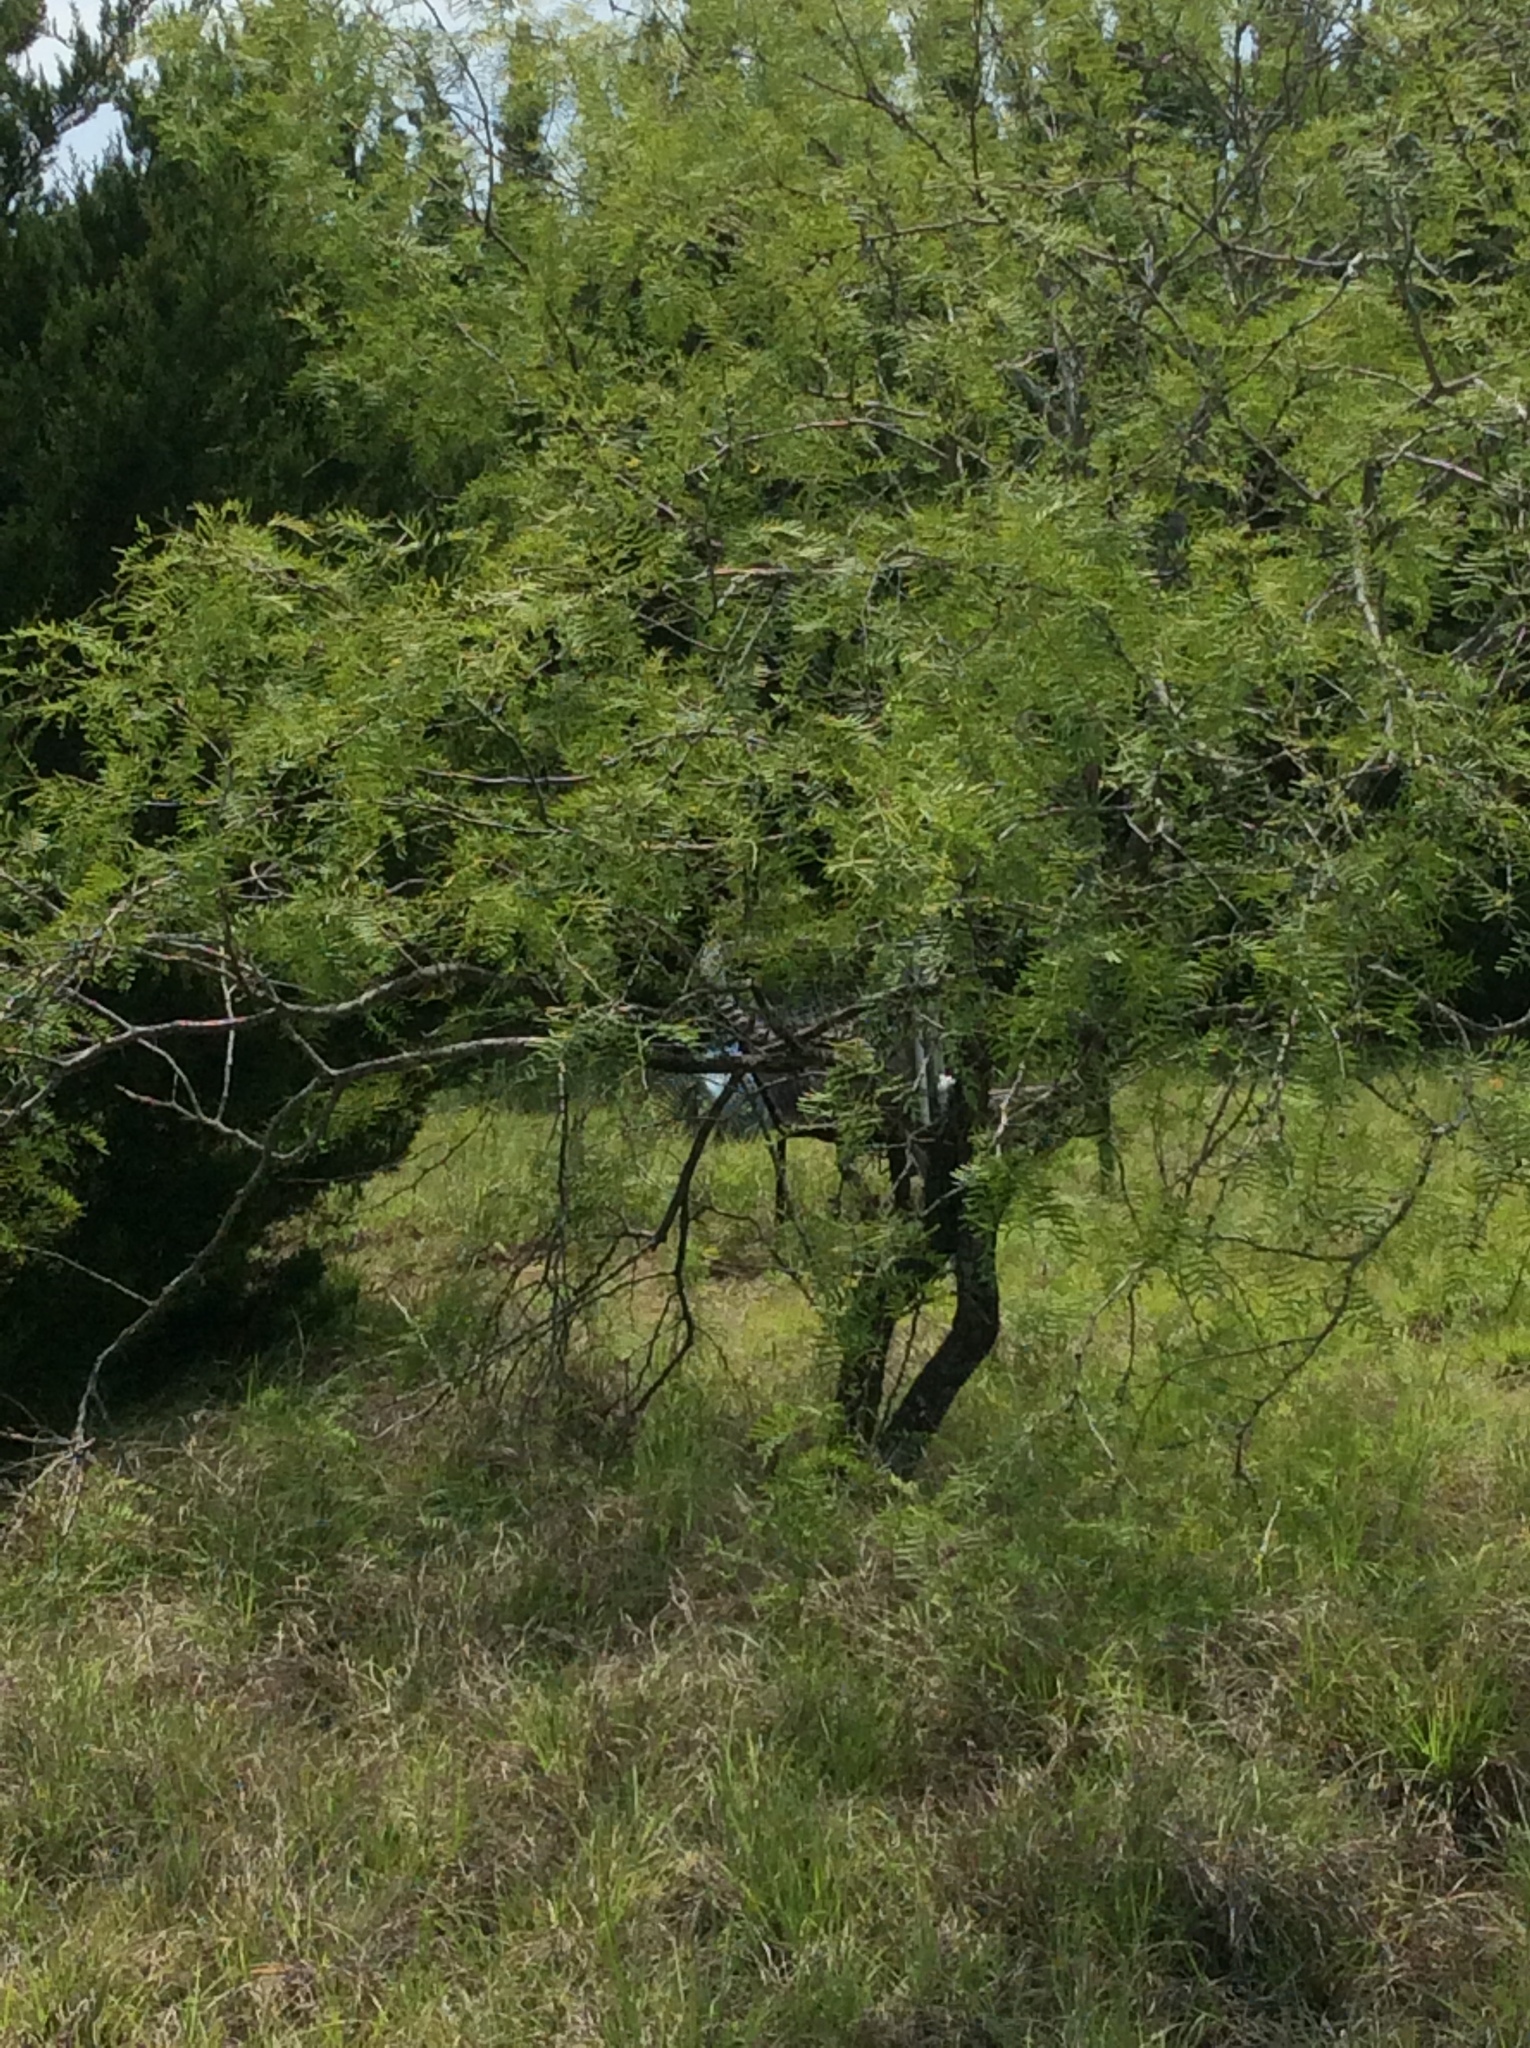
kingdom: Plantae
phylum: Tracheophyta
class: Magnoliopsida
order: Fabales
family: Fabaceae
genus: Prosopis
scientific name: Prosopis glandulosa
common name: Honey mesquite
